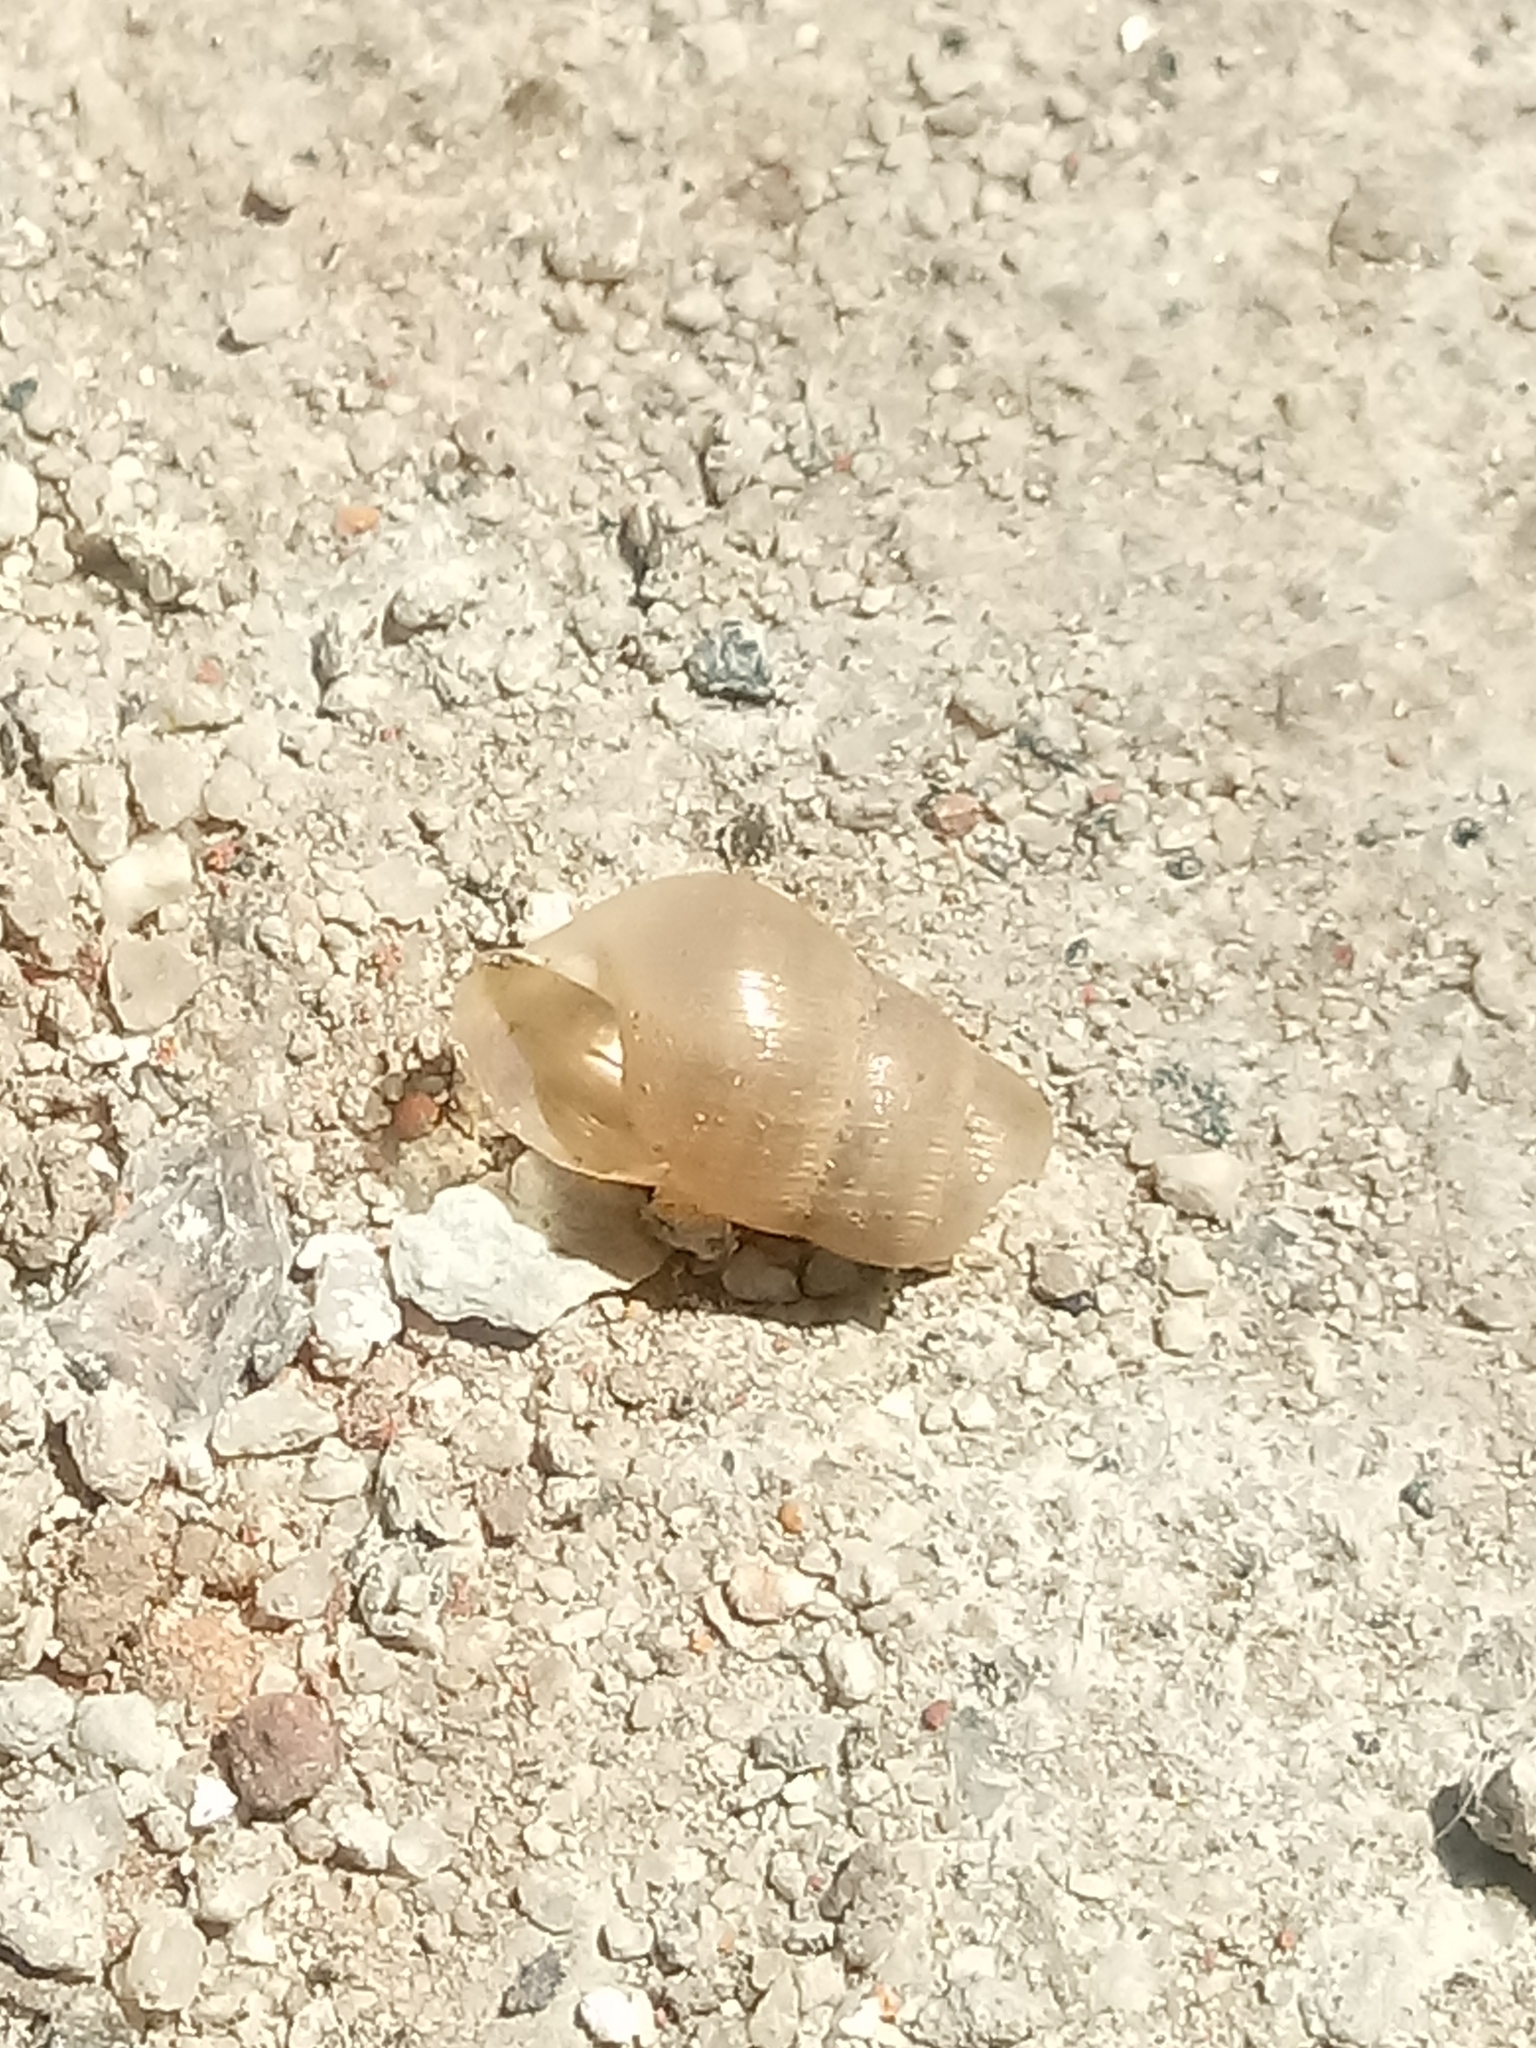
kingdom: Animalia
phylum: Mollusca
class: Gastropoda
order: Stylommatophora
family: Achatinidae
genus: Rumina
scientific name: Rumina decollata
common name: Decollate snail
